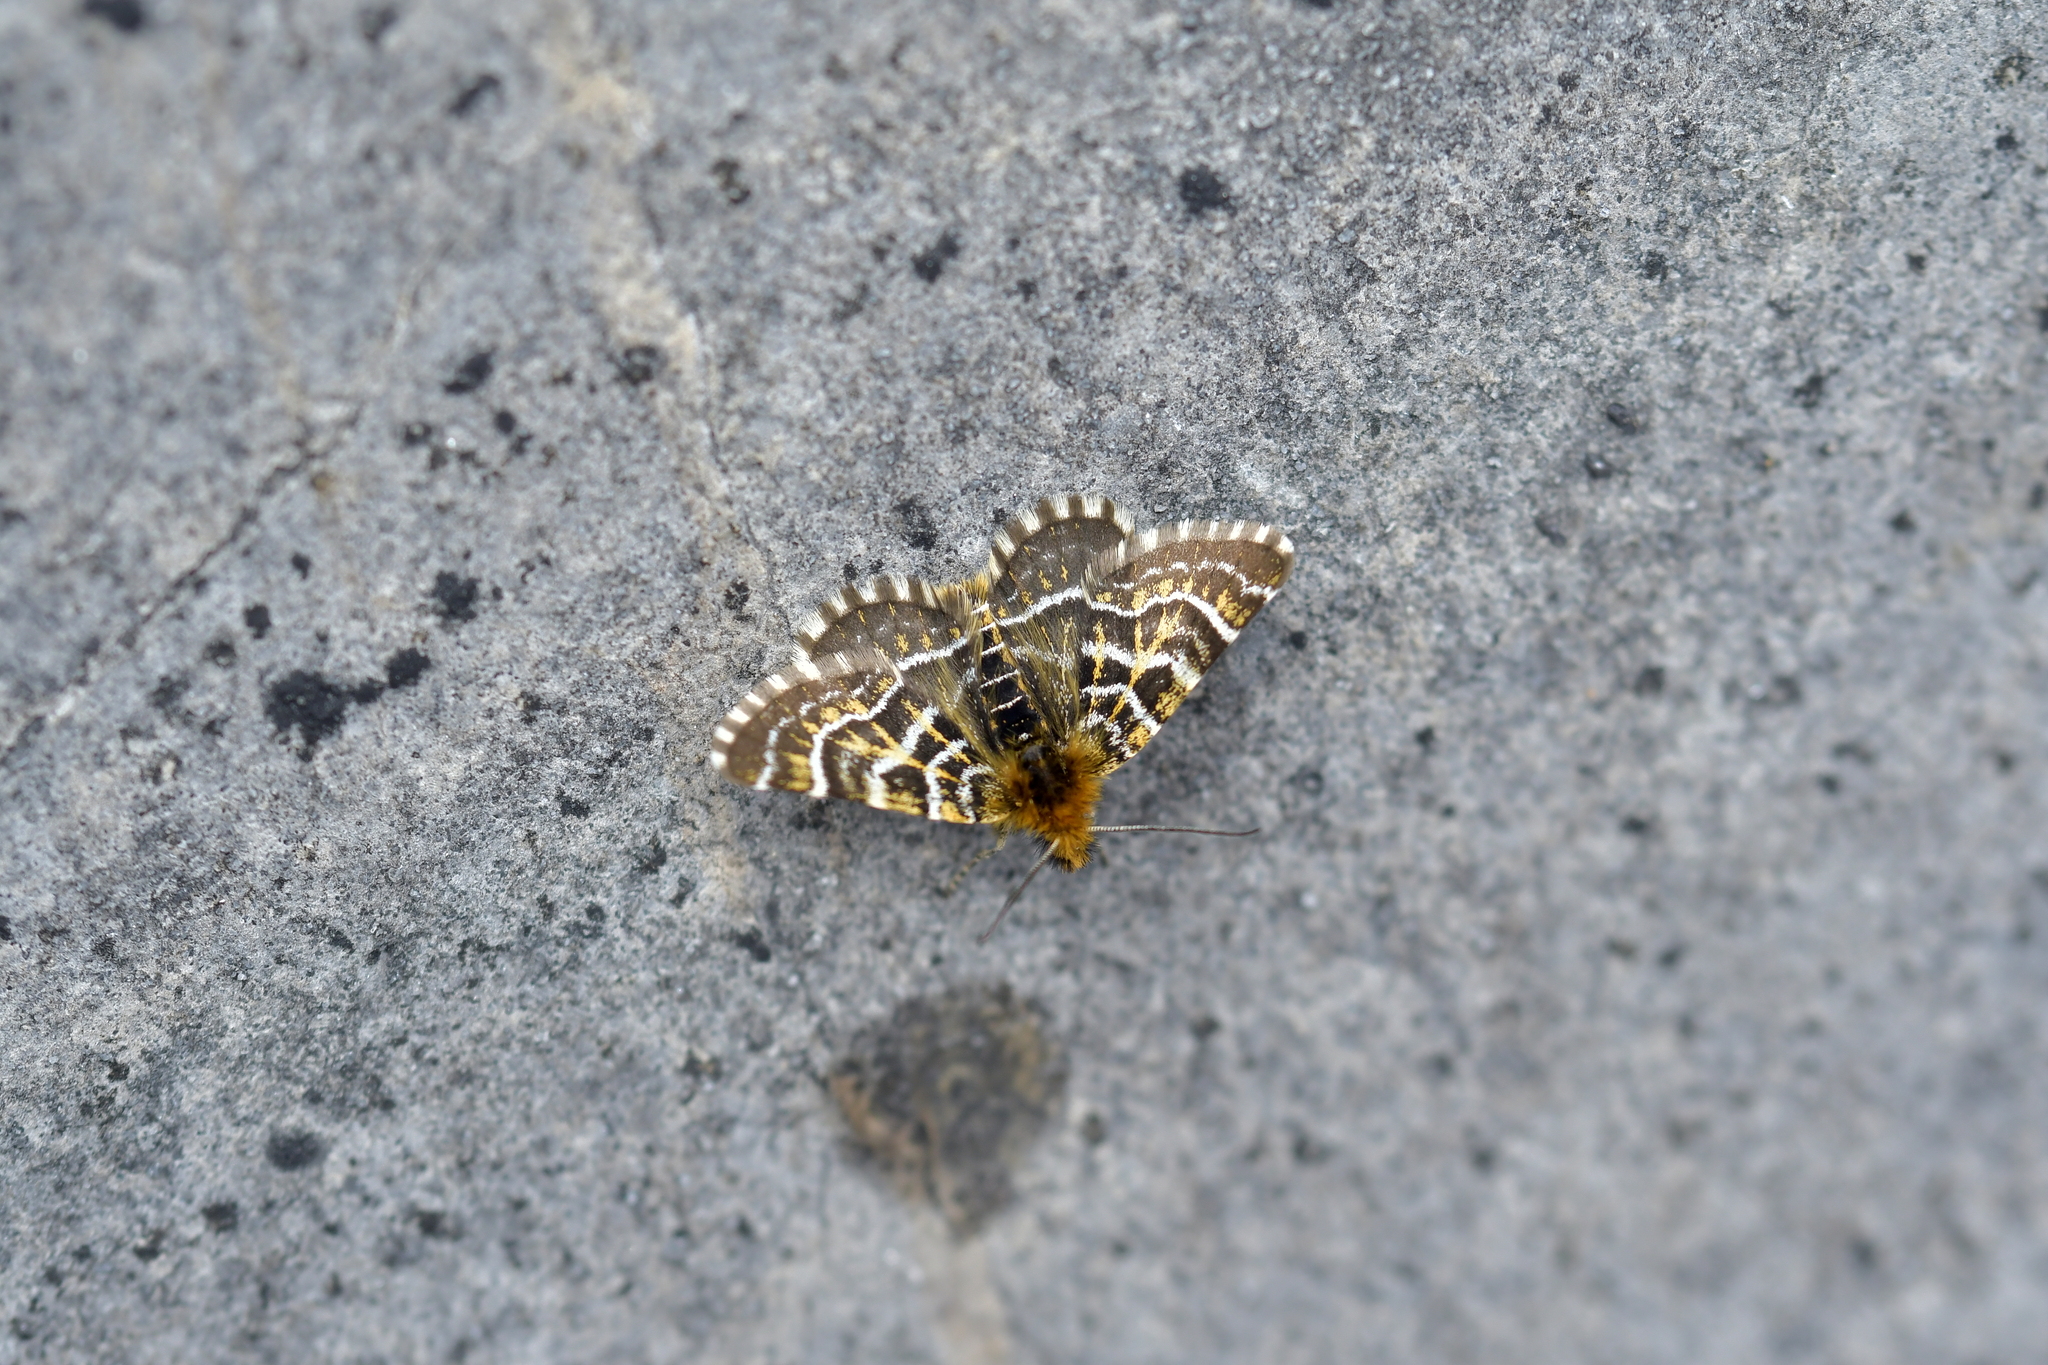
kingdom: Animalia
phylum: Arthropoda
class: Insecta
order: Lepidoptera
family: Geometridae
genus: Dasyuris
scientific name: Dasyuris leucobathra
